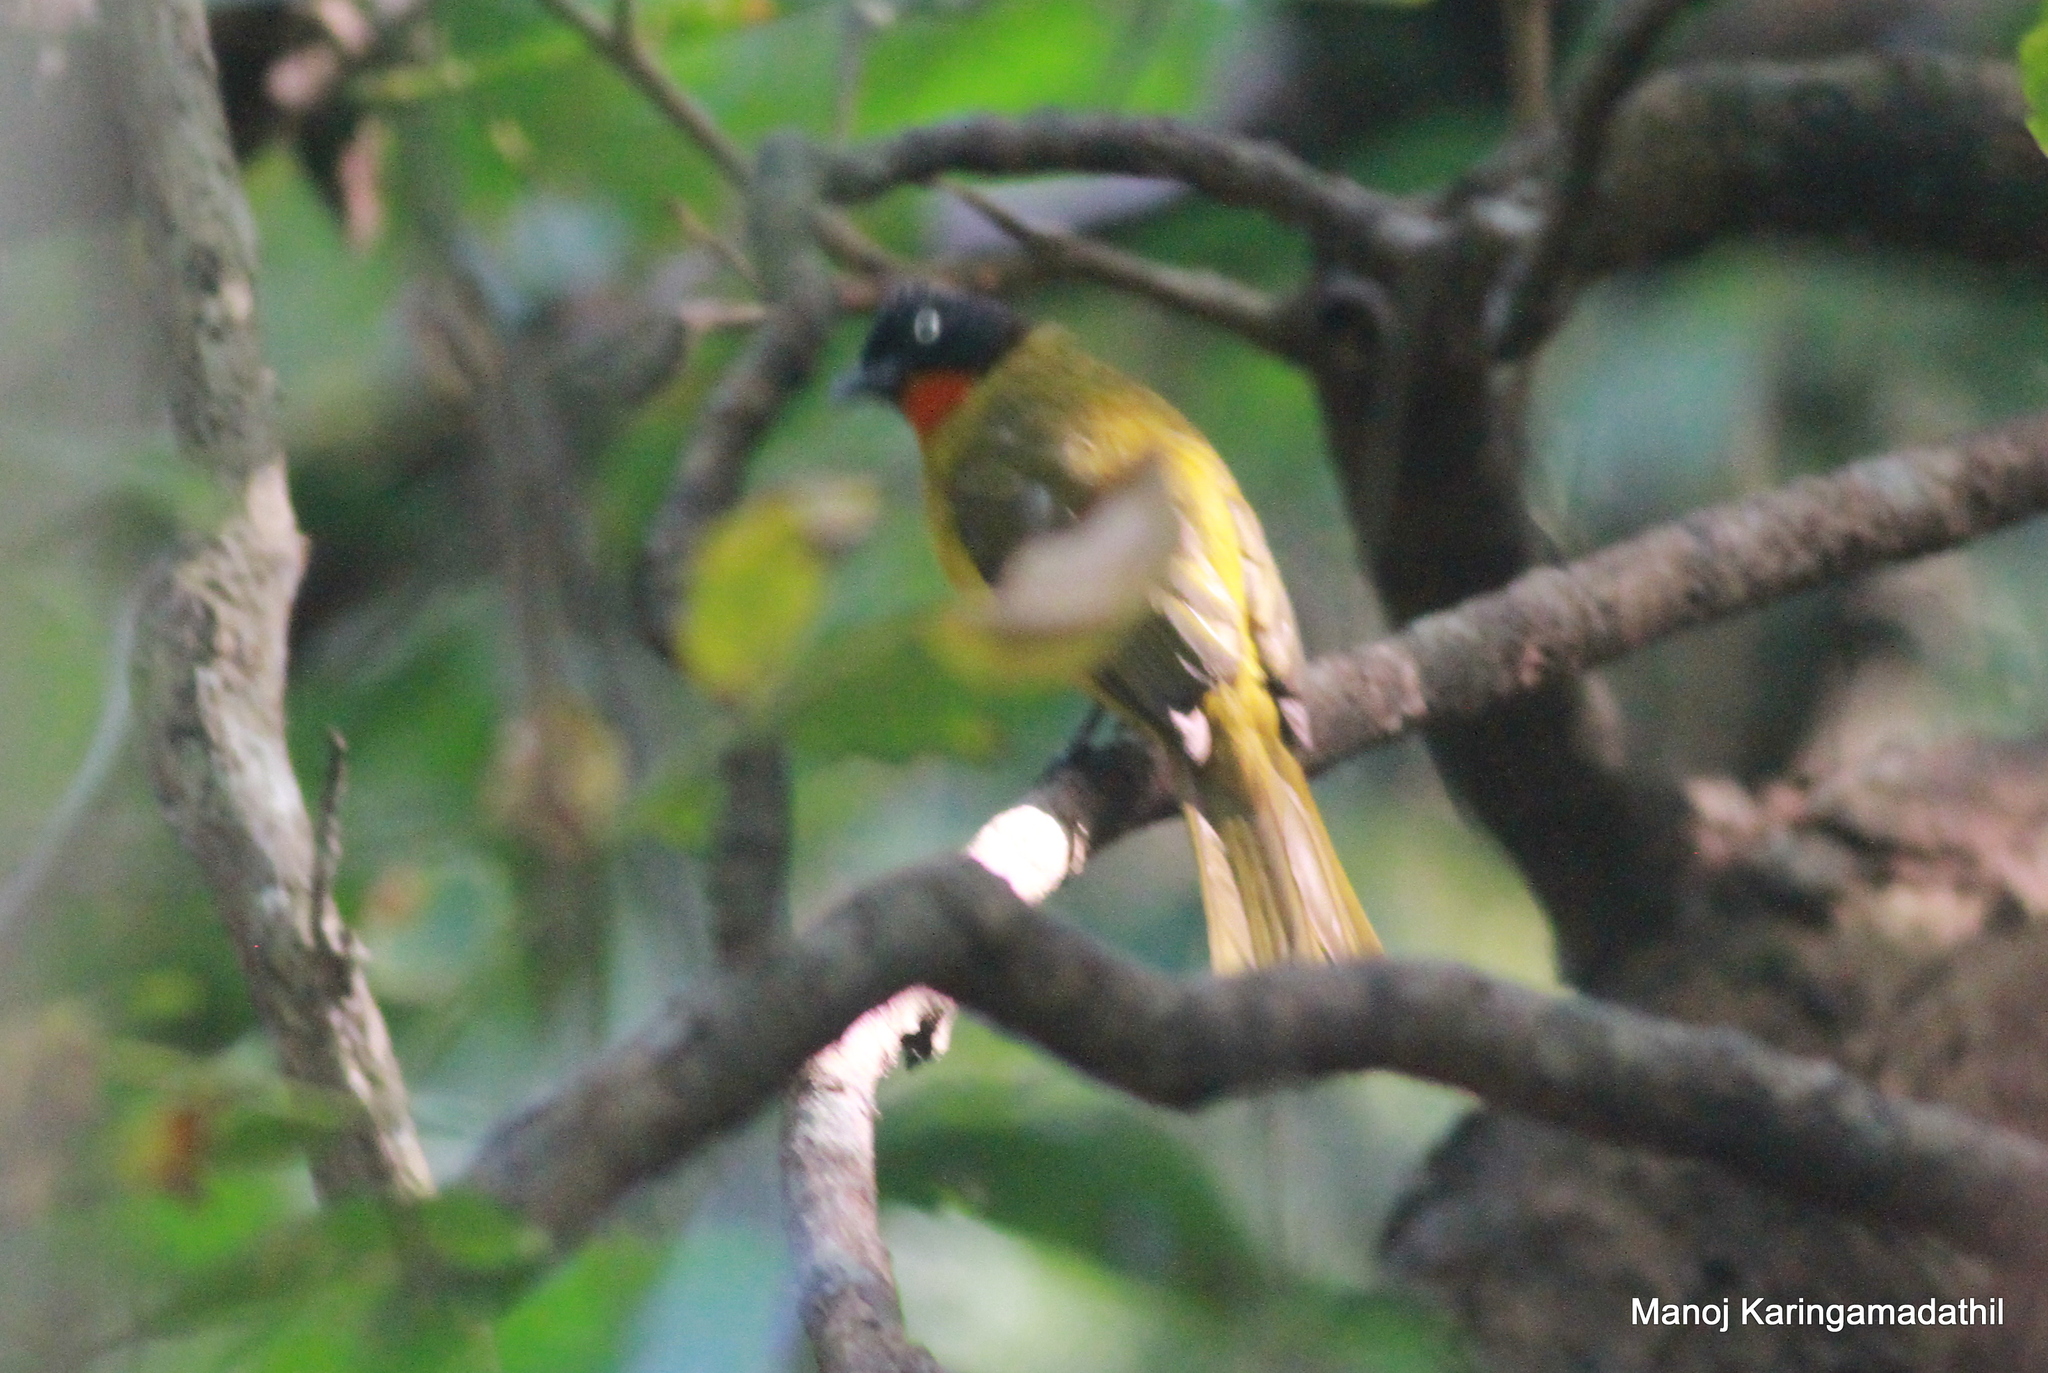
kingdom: Animalia
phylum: Chordata
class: Aves
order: Passeriformes
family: Pycnonotidae
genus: Pycnonotus
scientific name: Pycnonotus gularis
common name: Flame-throated bulbul
